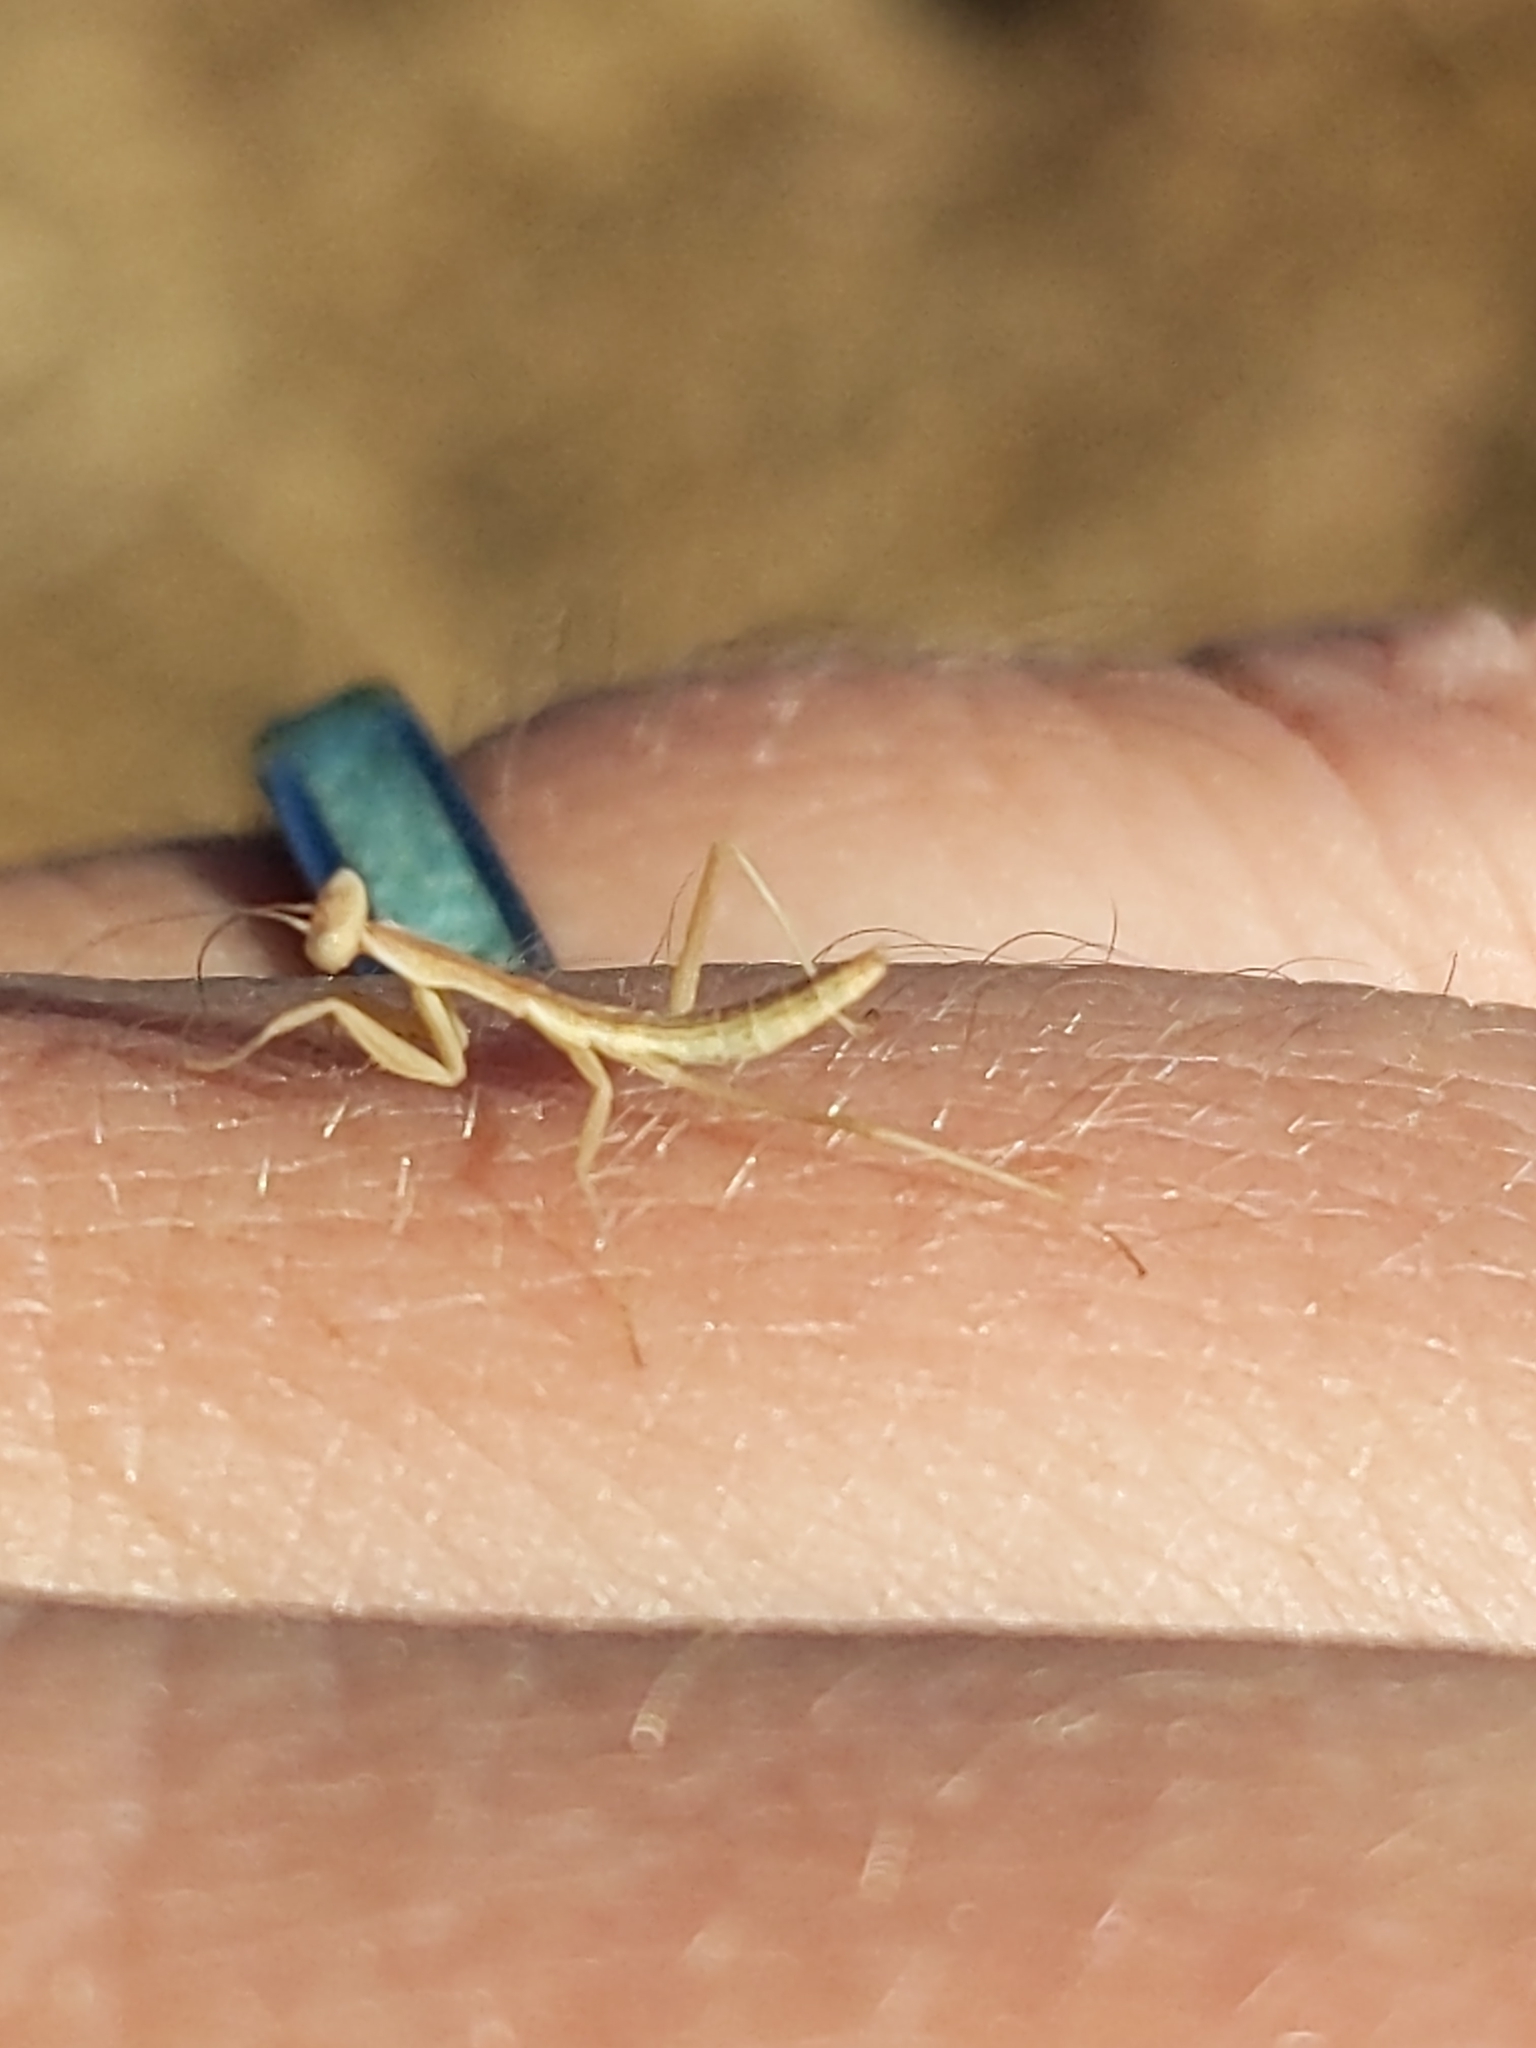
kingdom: Animalia
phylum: Arthropoda
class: Insecta
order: Mantodea
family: Eremiaphilidae
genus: Iris
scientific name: Iris oratoria
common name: Mediterranean mantis
